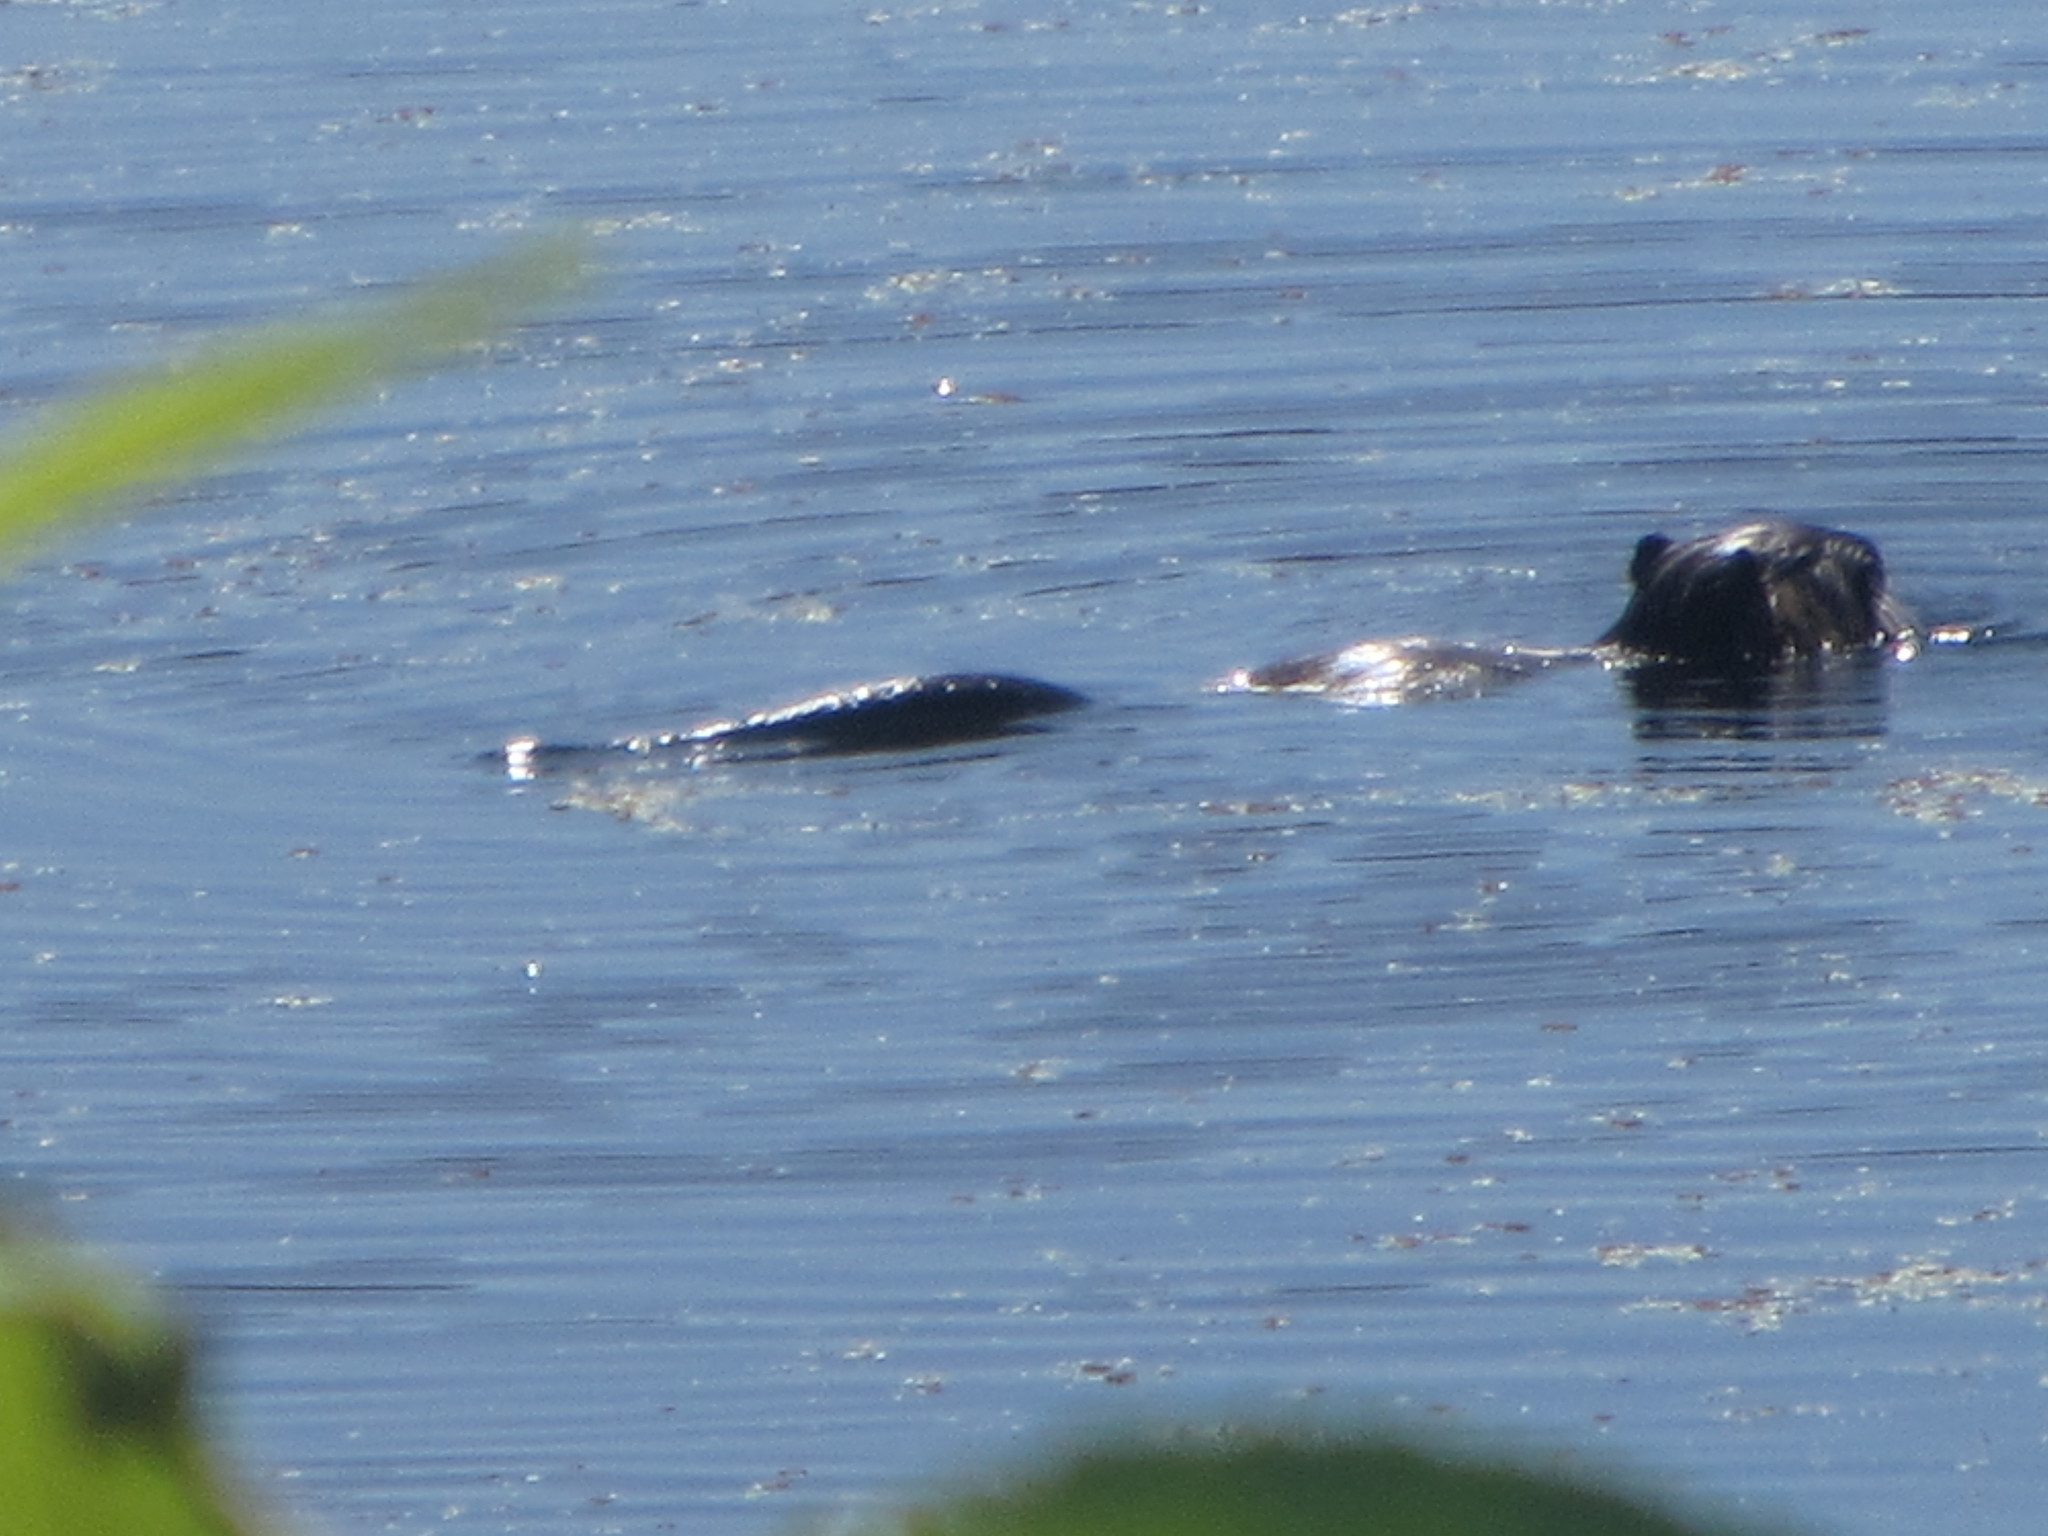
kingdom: Animalia
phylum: Chordata
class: Mammalia
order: Rodentia
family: Myocastoridae
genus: Myocastor
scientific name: Myocastor coypus
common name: Coypu
